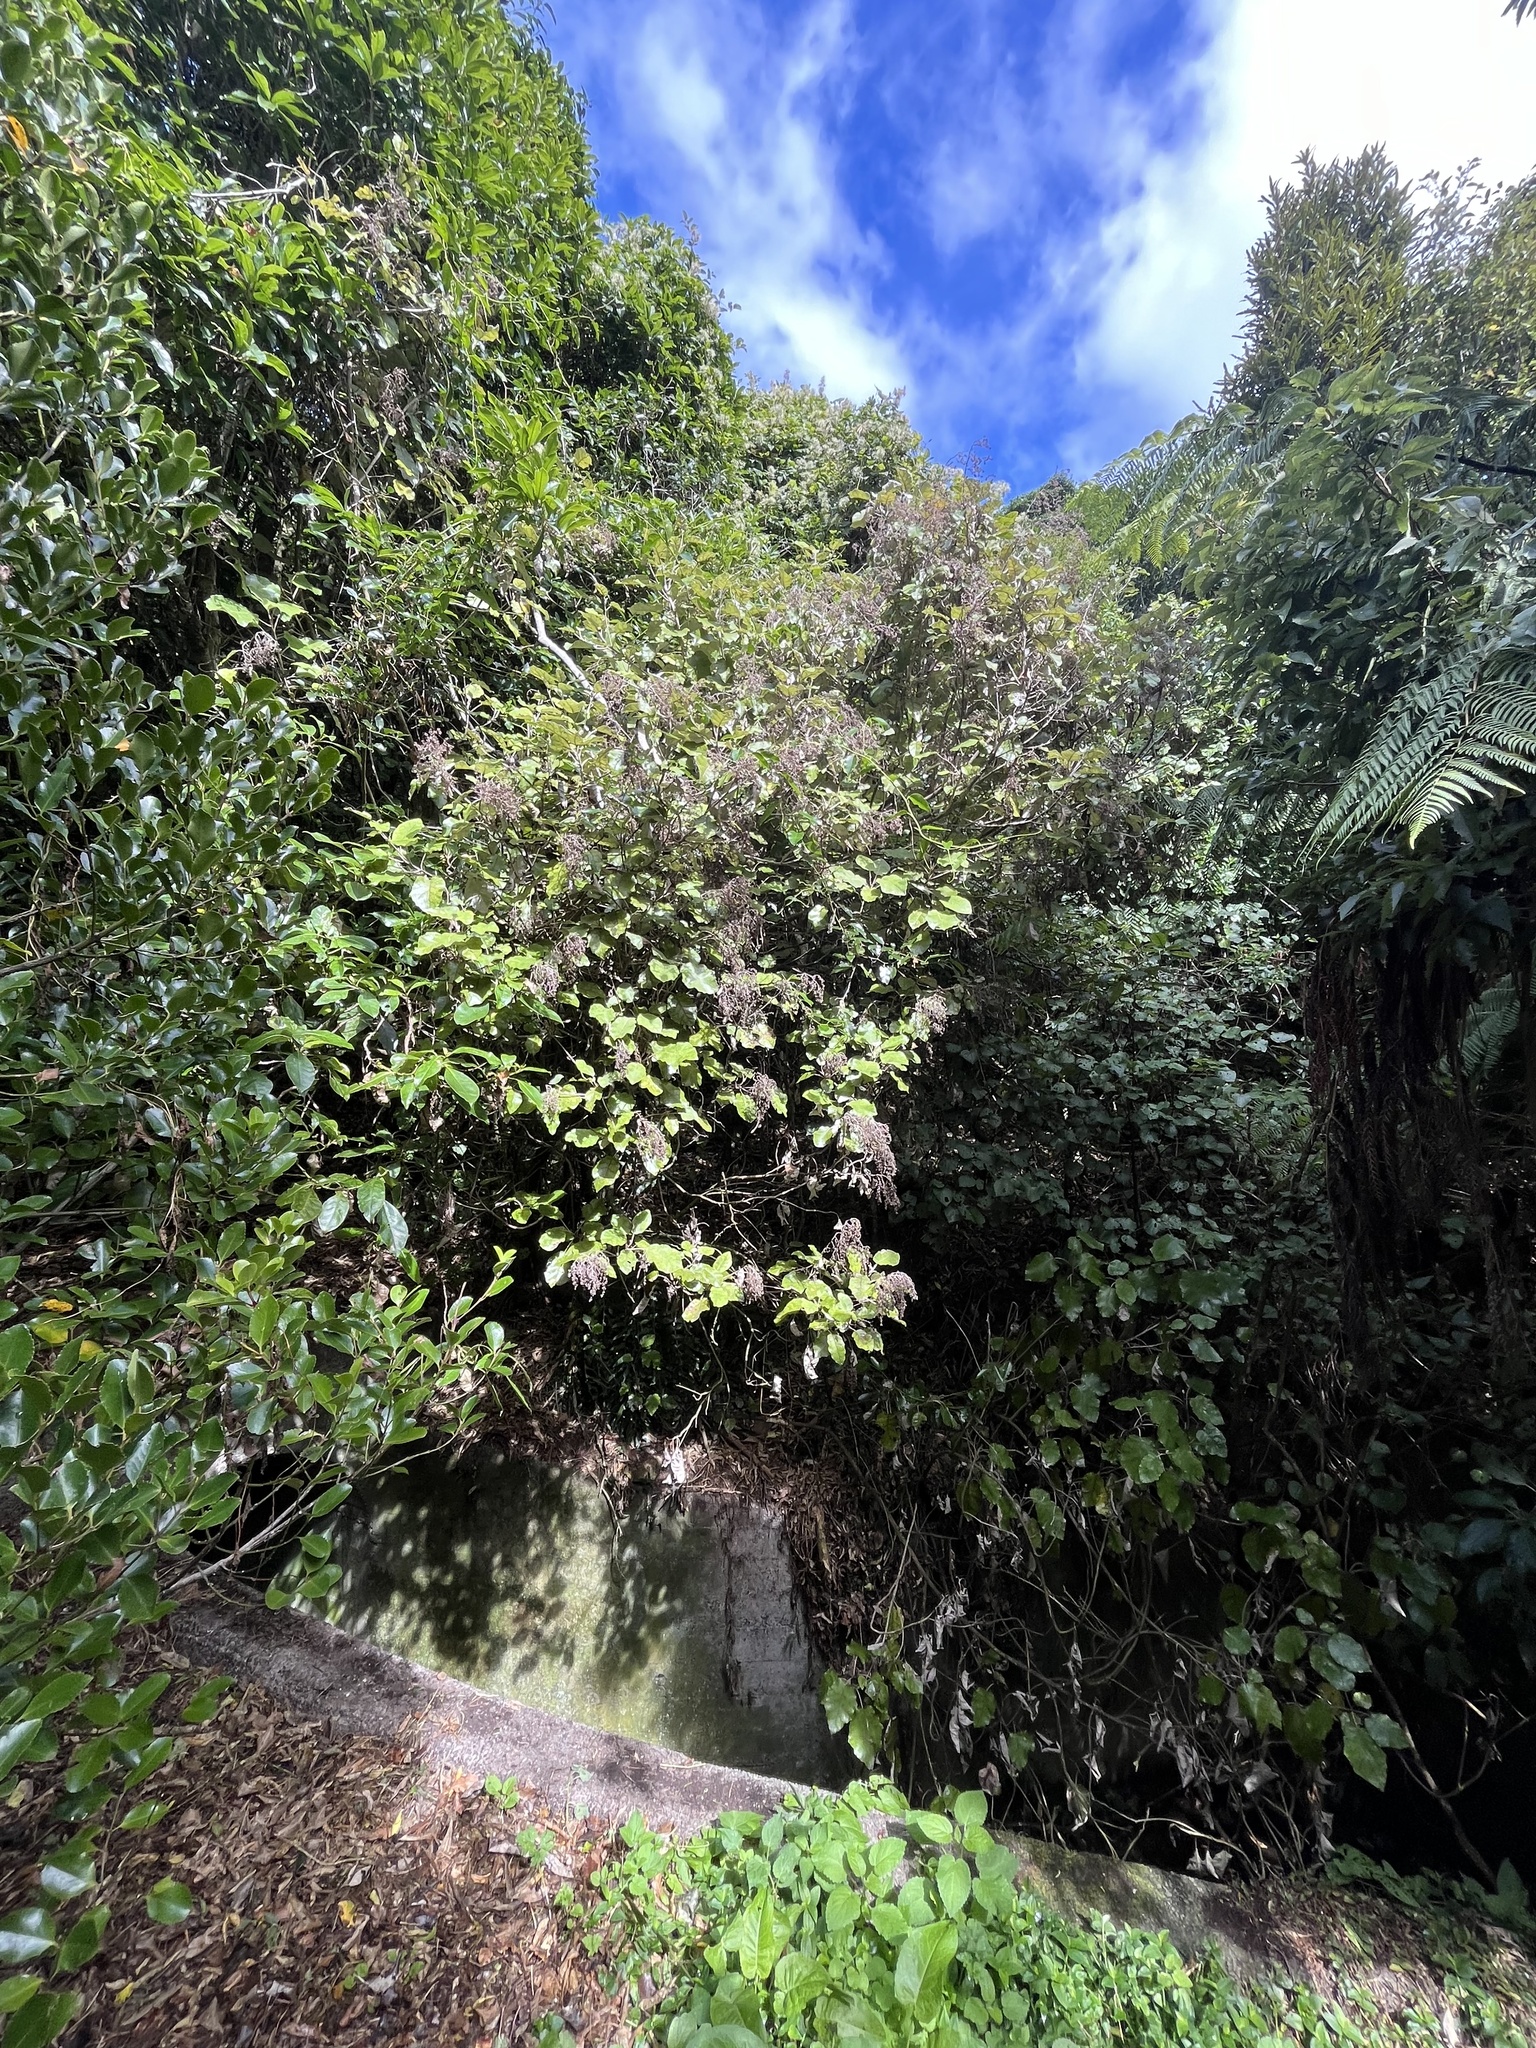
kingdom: Plantae
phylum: Tracheophyta
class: Magnoliopsida
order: Ranunculales
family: Ranunculaceae
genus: Clematis
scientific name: Clematis vitalba
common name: Evergreen clematis
